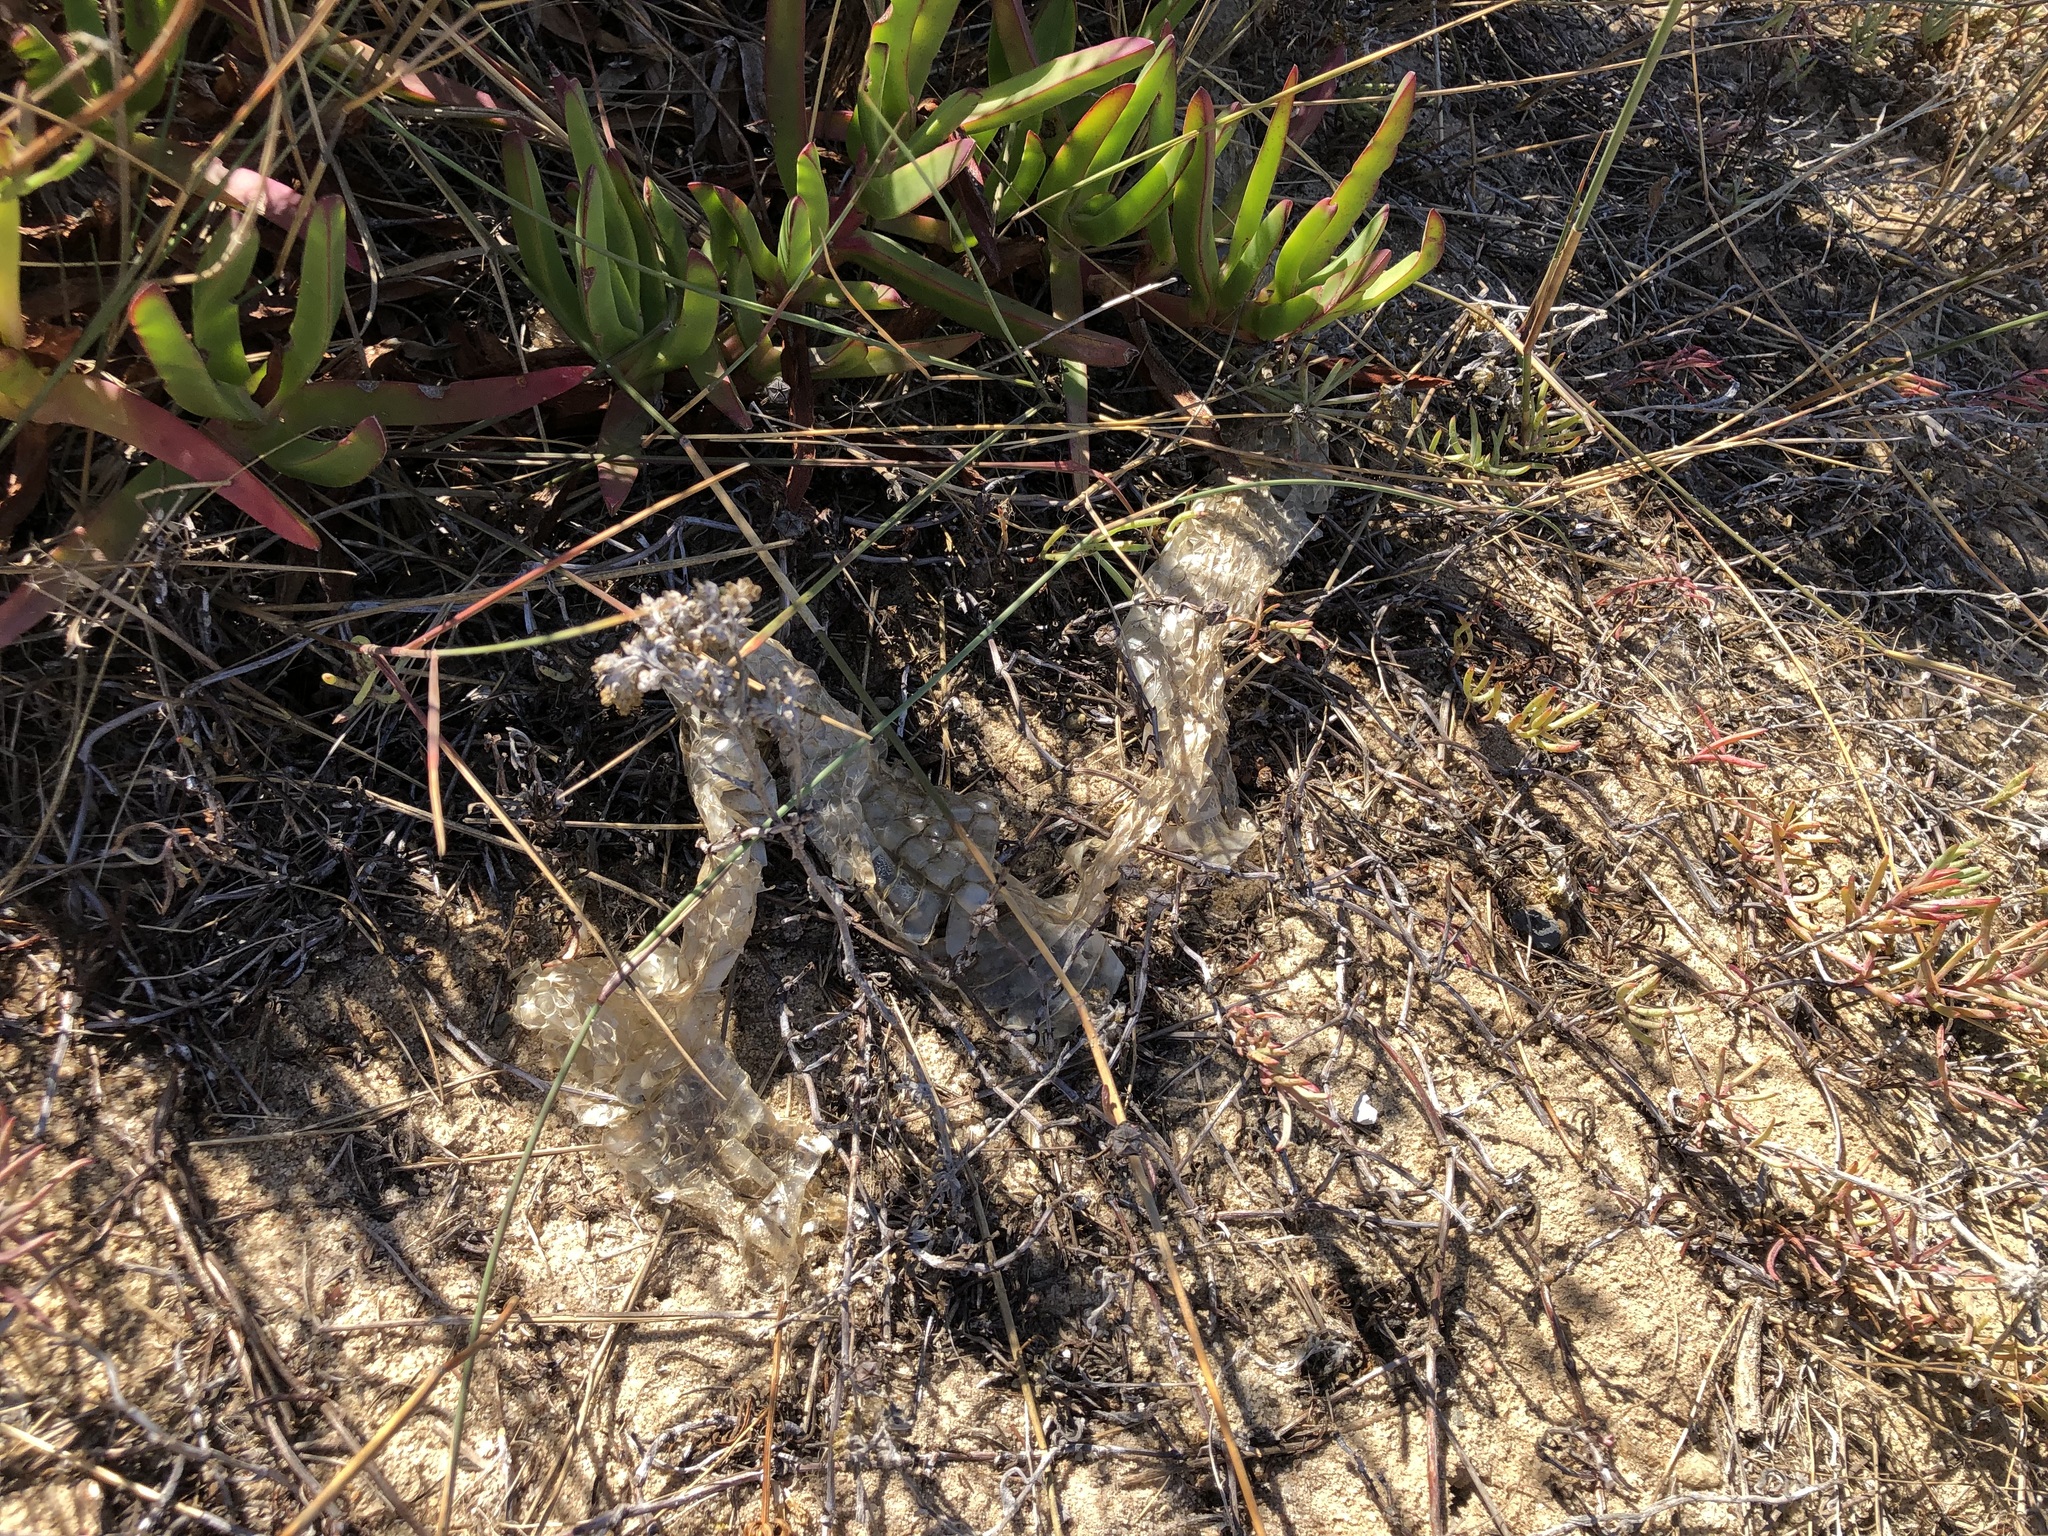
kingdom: Animalia
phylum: Chordata
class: Squamata
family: Pseudaspididae
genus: Pseudaspis
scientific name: Pseudaspis cana
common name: Mole snake
